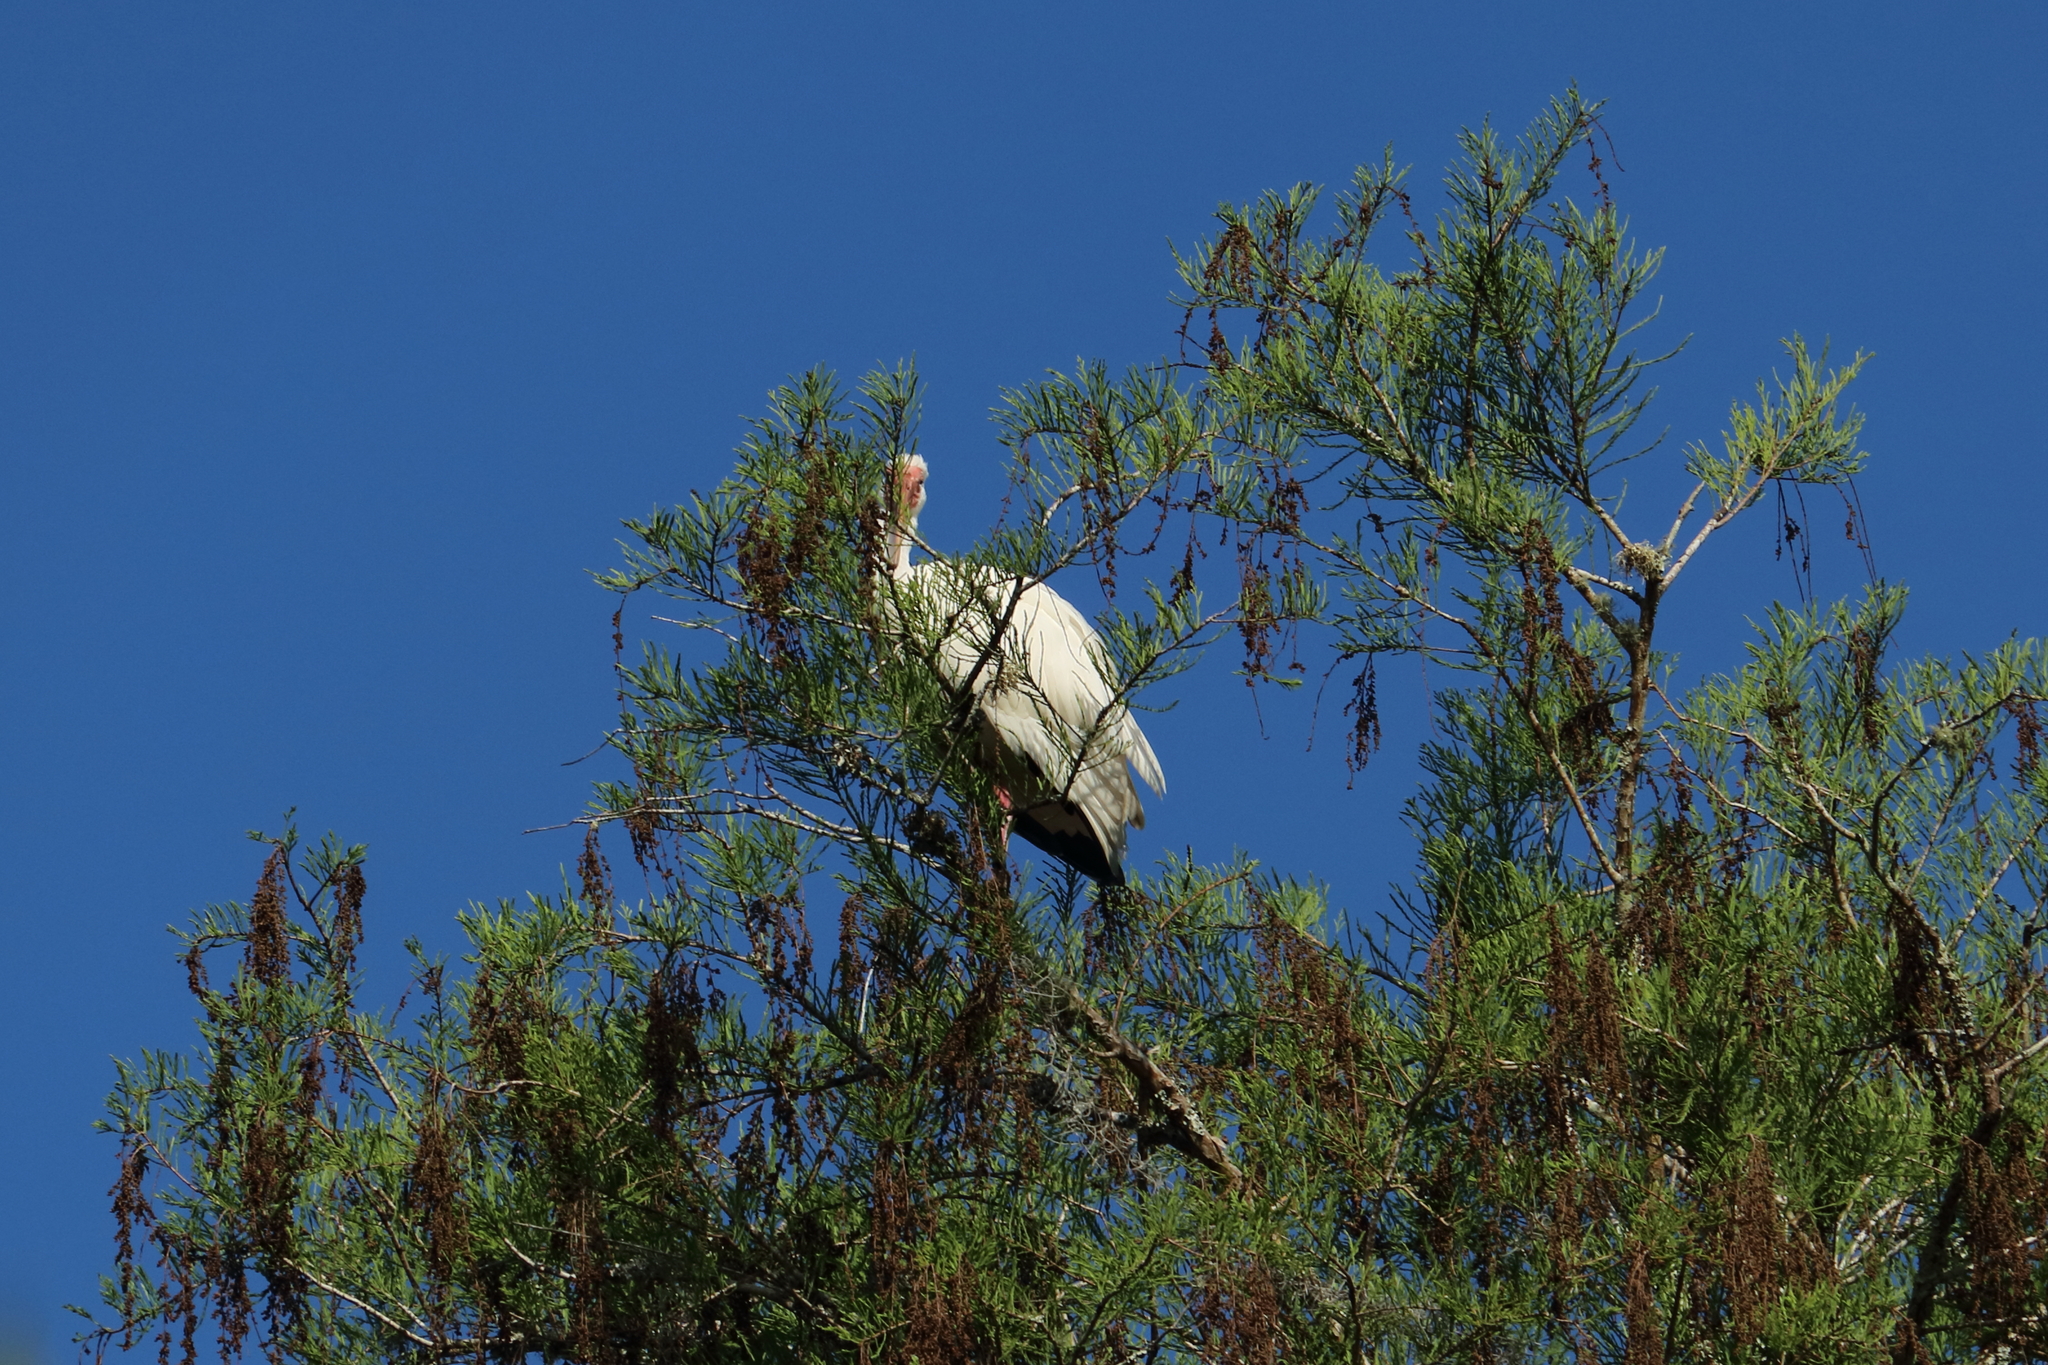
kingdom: Animalia
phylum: Chordata
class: Aves
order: Pelecaniformes
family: Threskiornithidae
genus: Eudocimus
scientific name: Eudocimus albus
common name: White ibis
